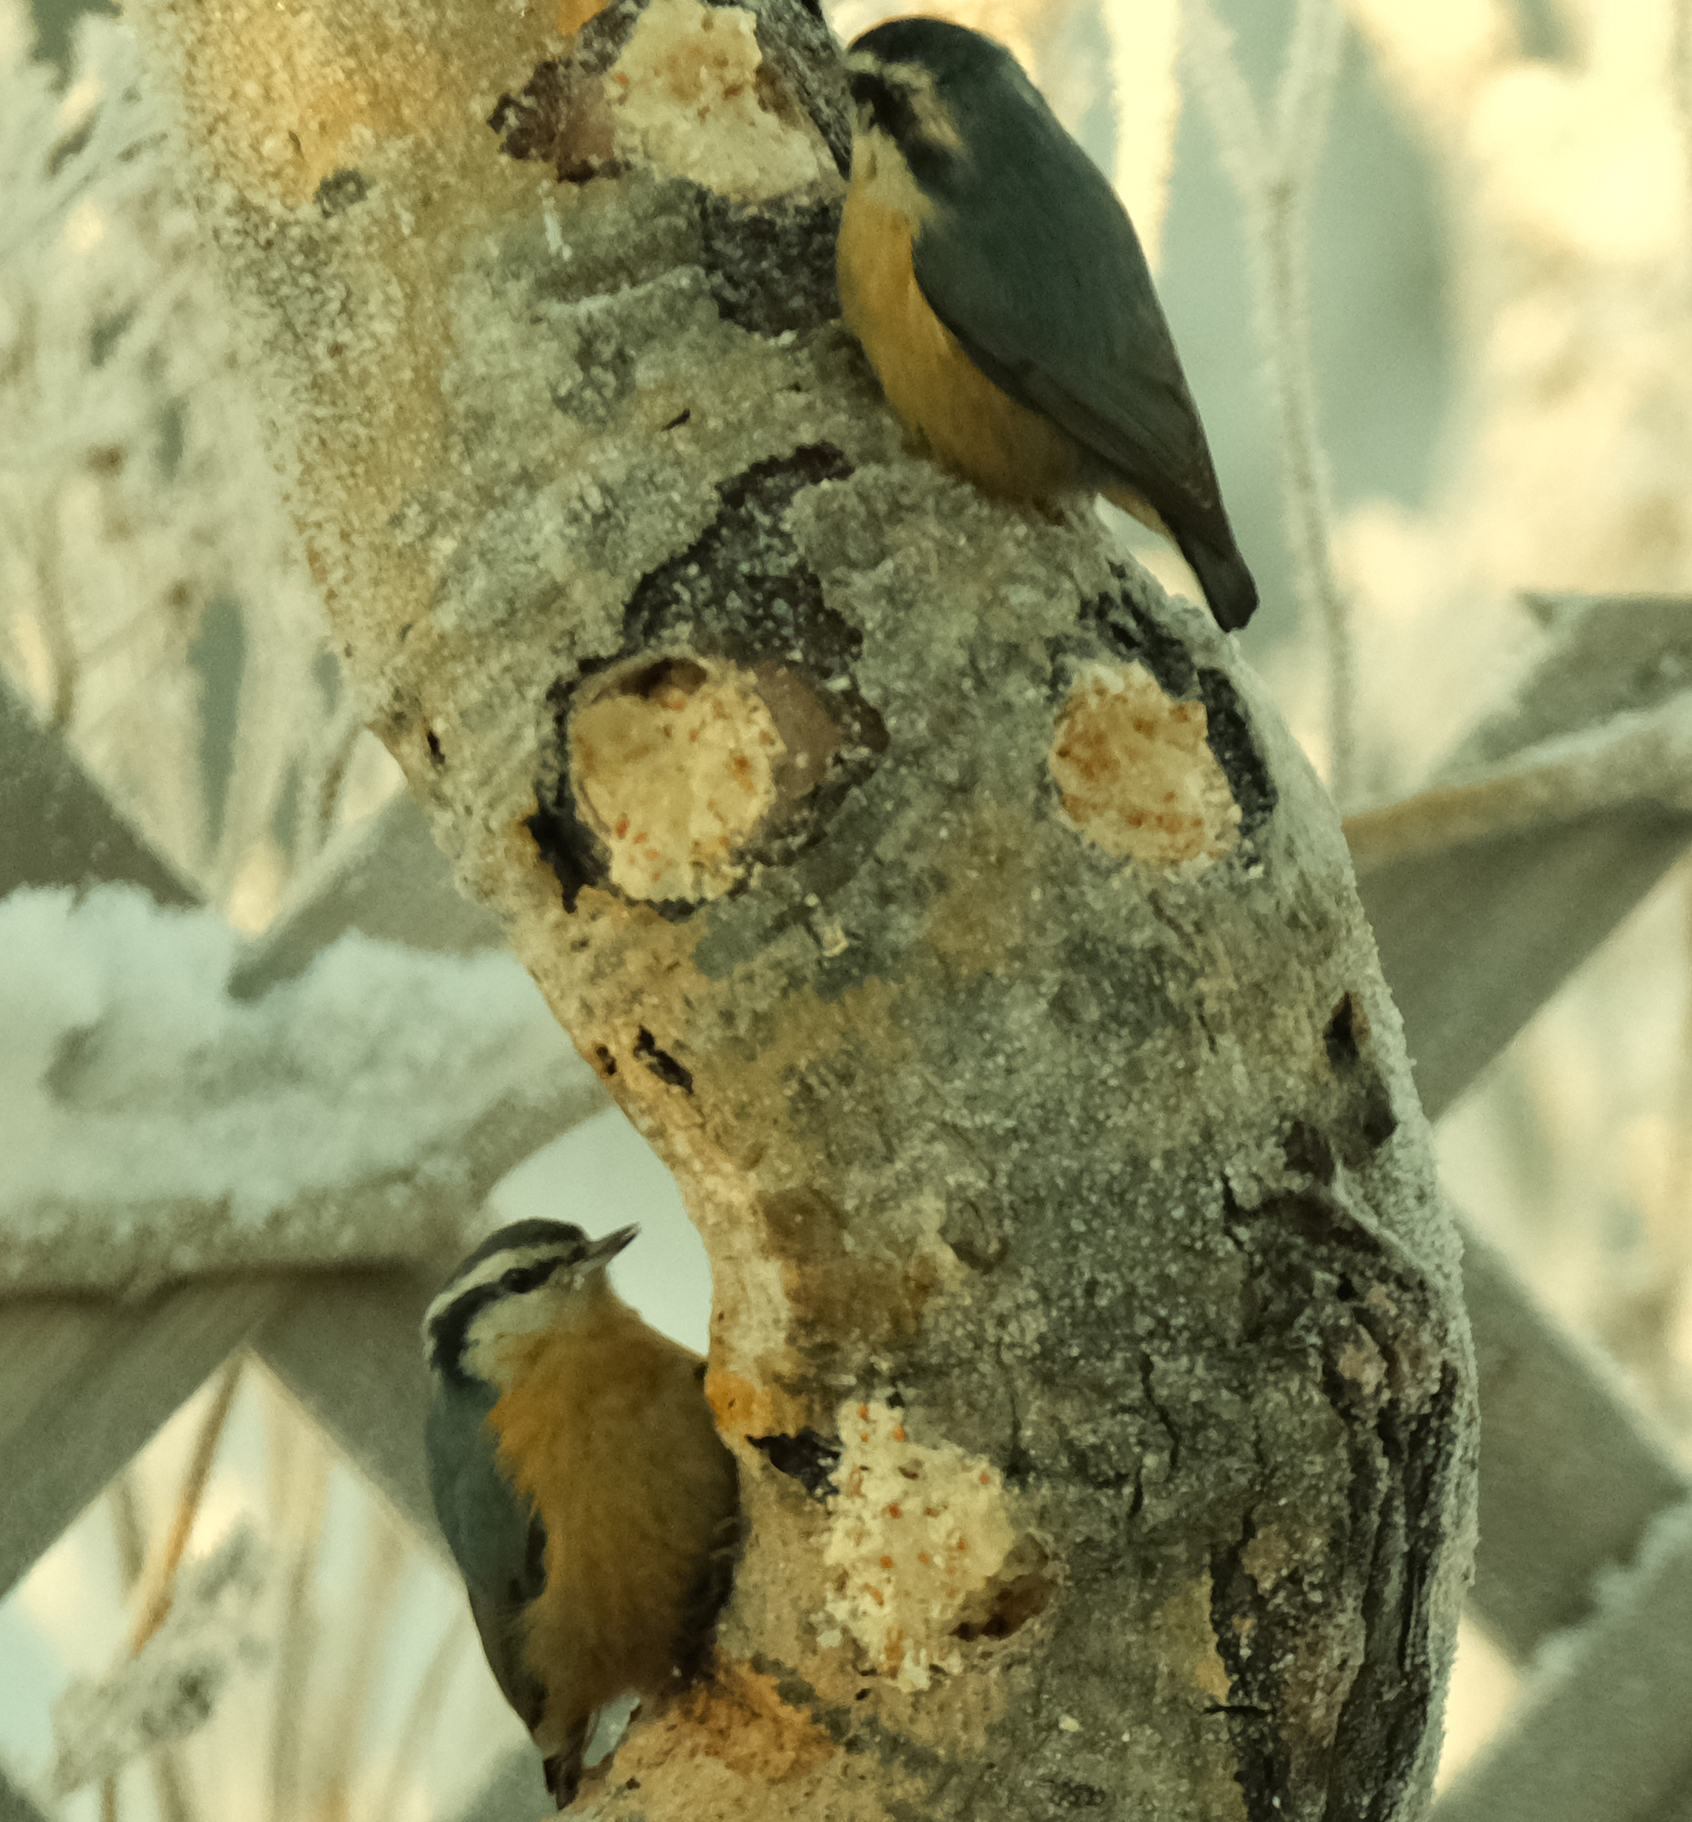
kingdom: Animalia
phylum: Chordata
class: Aves
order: Passeriformes
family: Sittidae
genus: Sitta
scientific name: Sitta canadensis
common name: Red-breasted nuthatch
